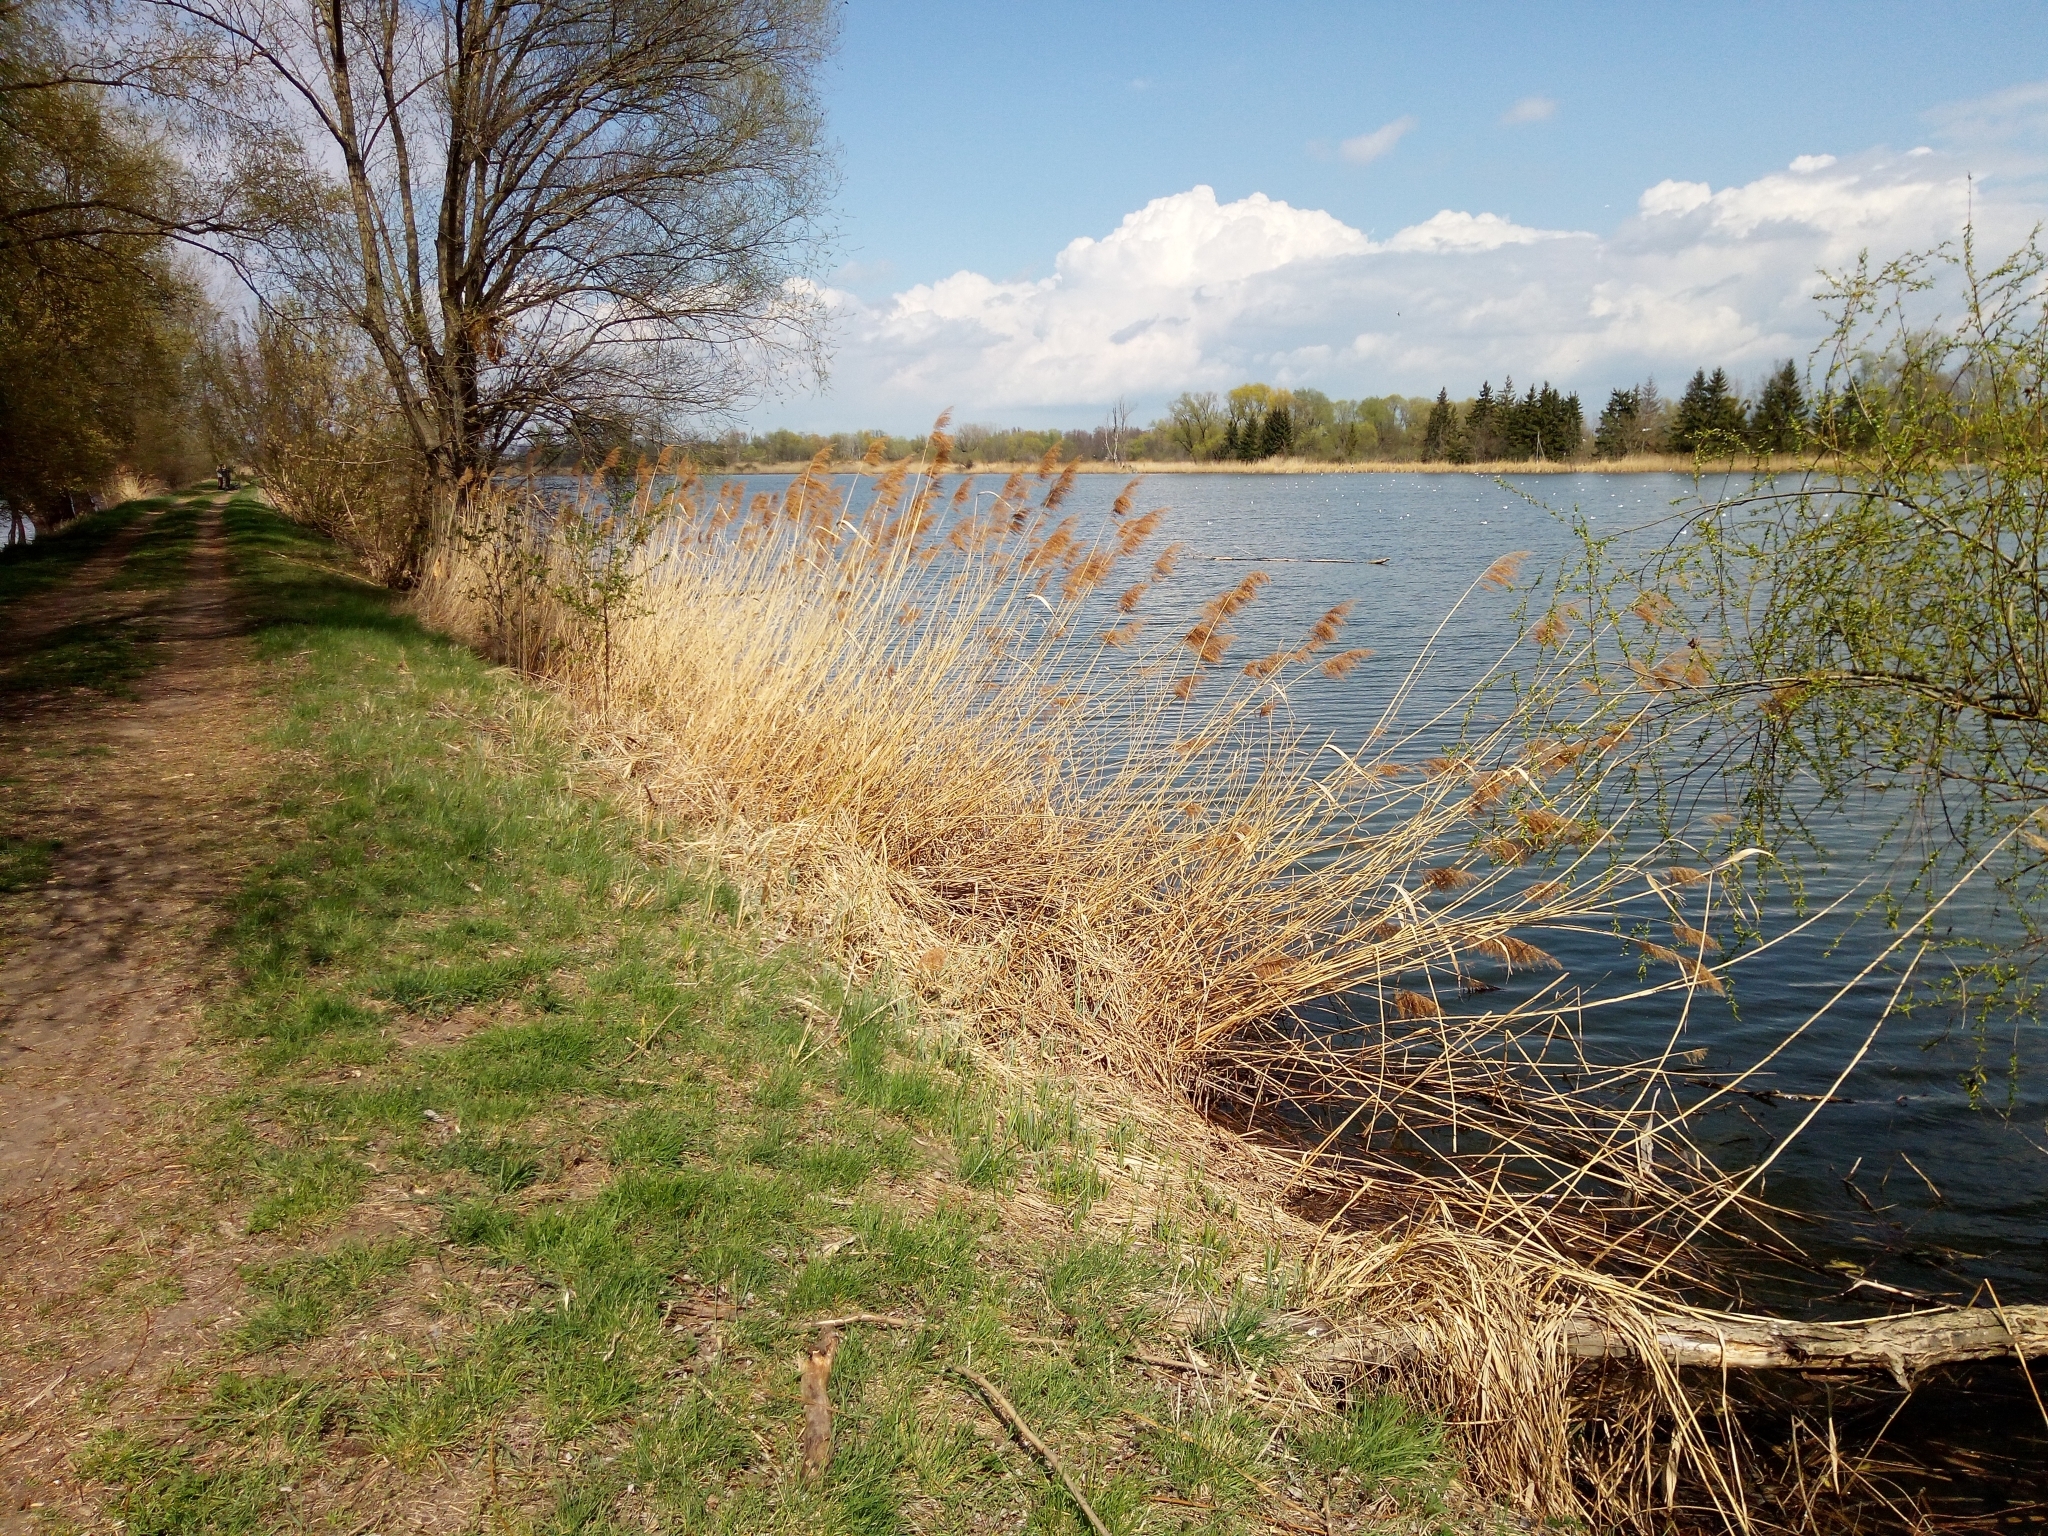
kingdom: Plantae
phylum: Tracheophyta
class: Liliopsida
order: Poales
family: Poaceae
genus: Phragmites
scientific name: Phragmites australis
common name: Common reed
